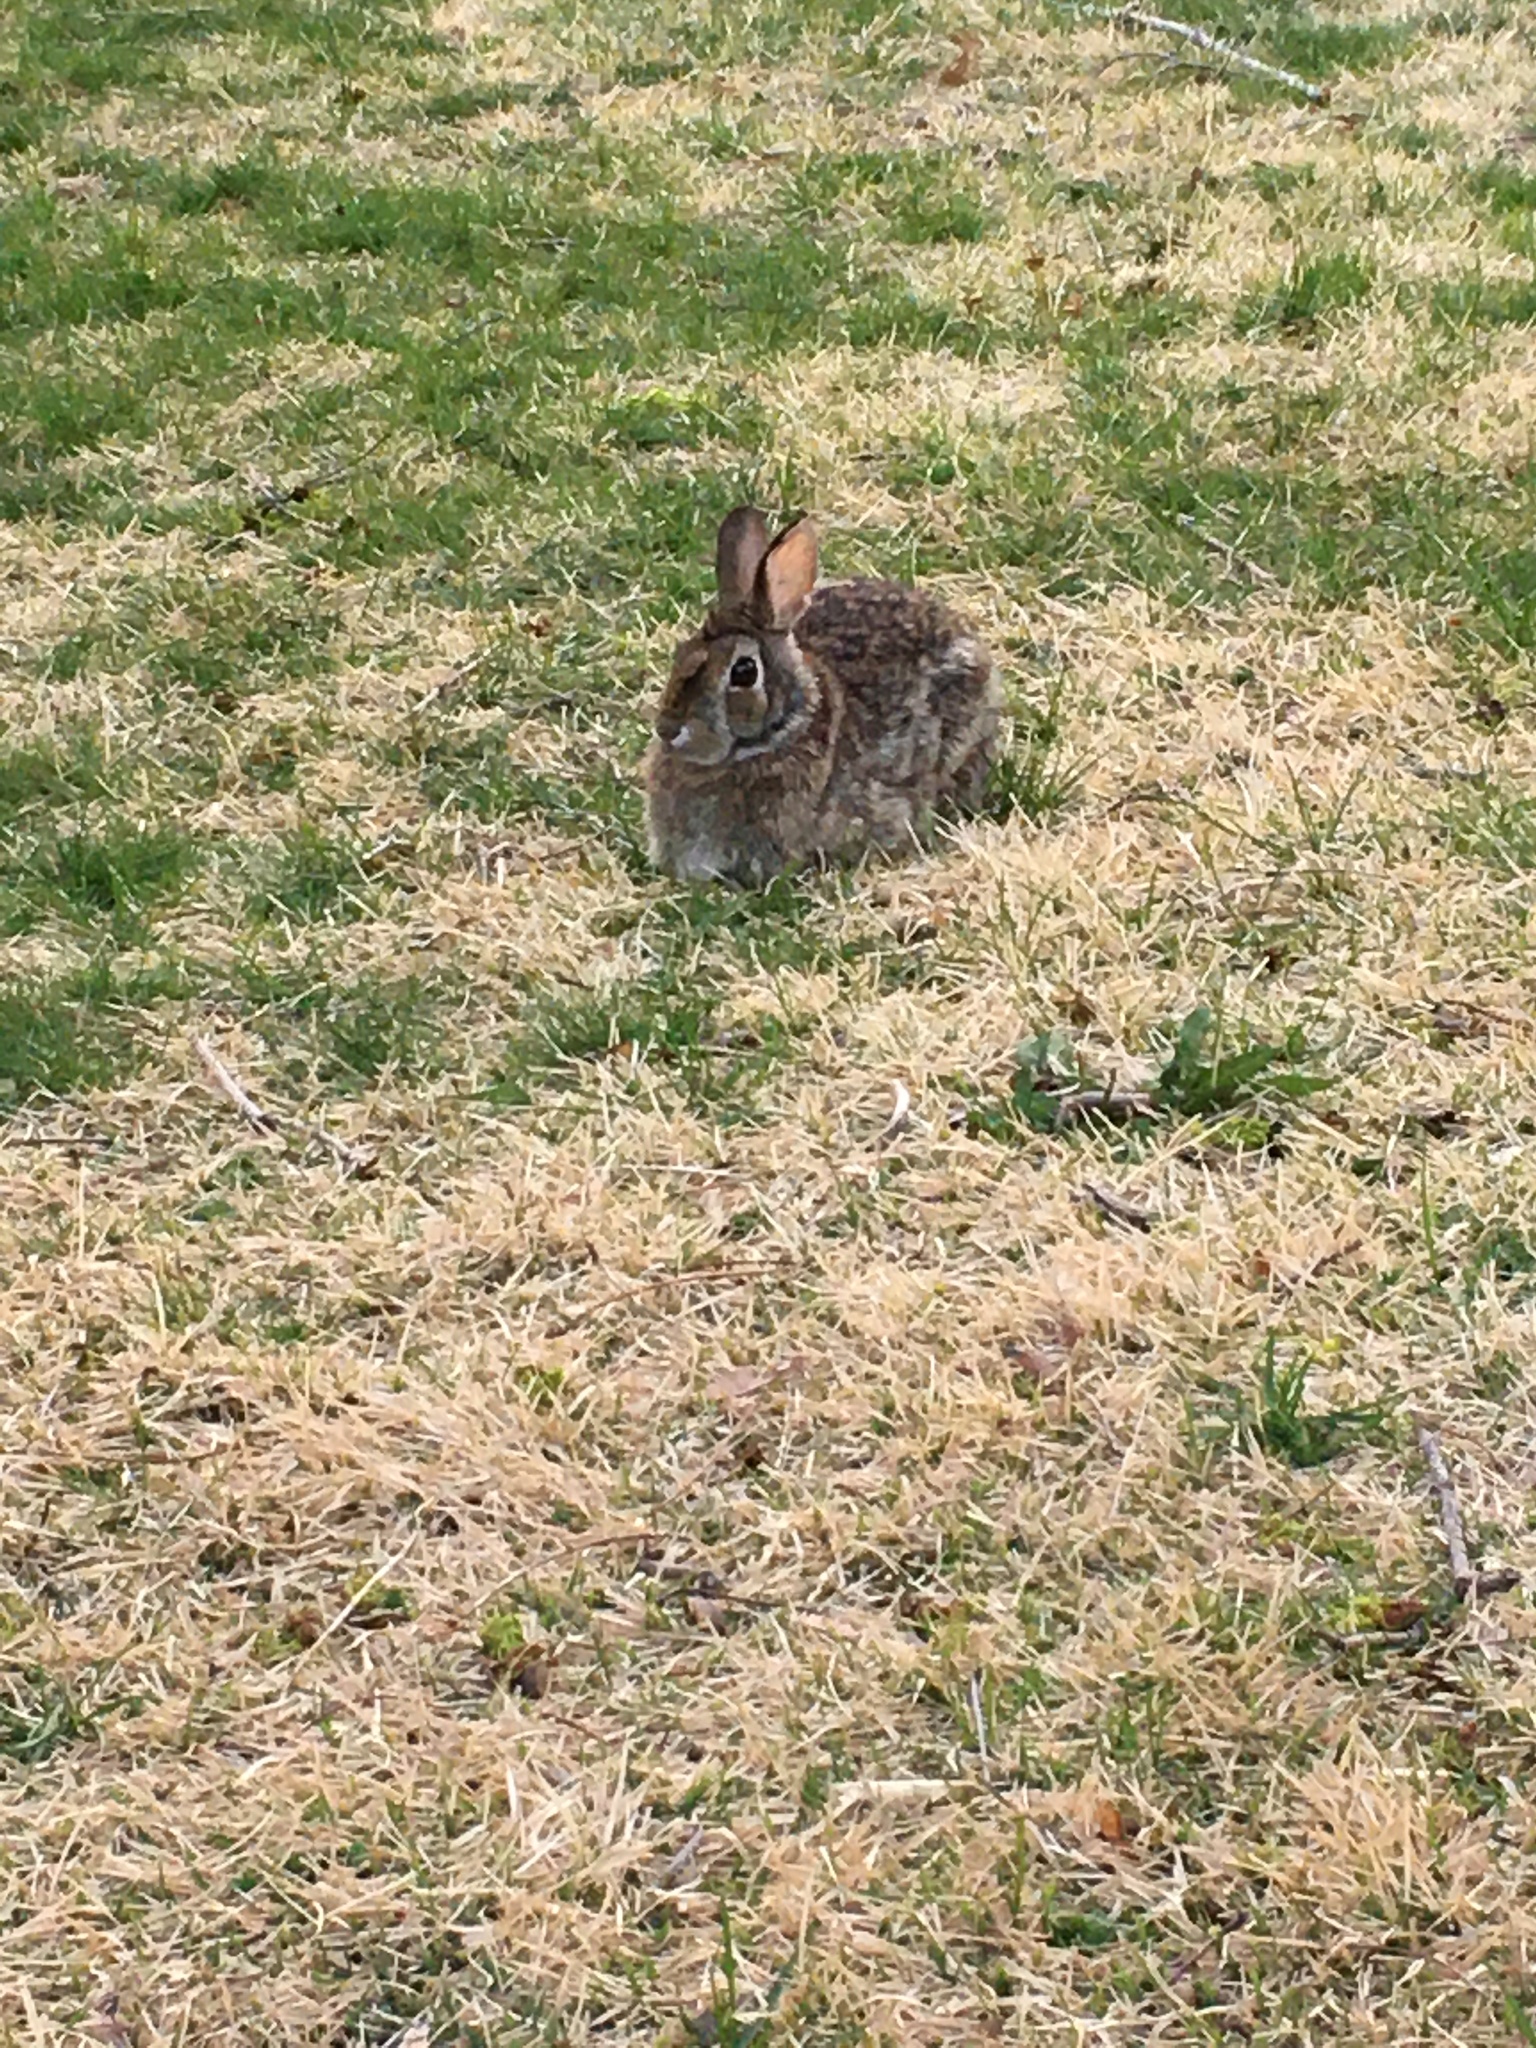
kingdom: Animalia
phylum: Chordata
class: Mammalia
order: Lagomorpha
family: Leporidae
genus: Sylvilagus
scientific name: Sylvilagus floridanus
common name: Eastern cottontail
